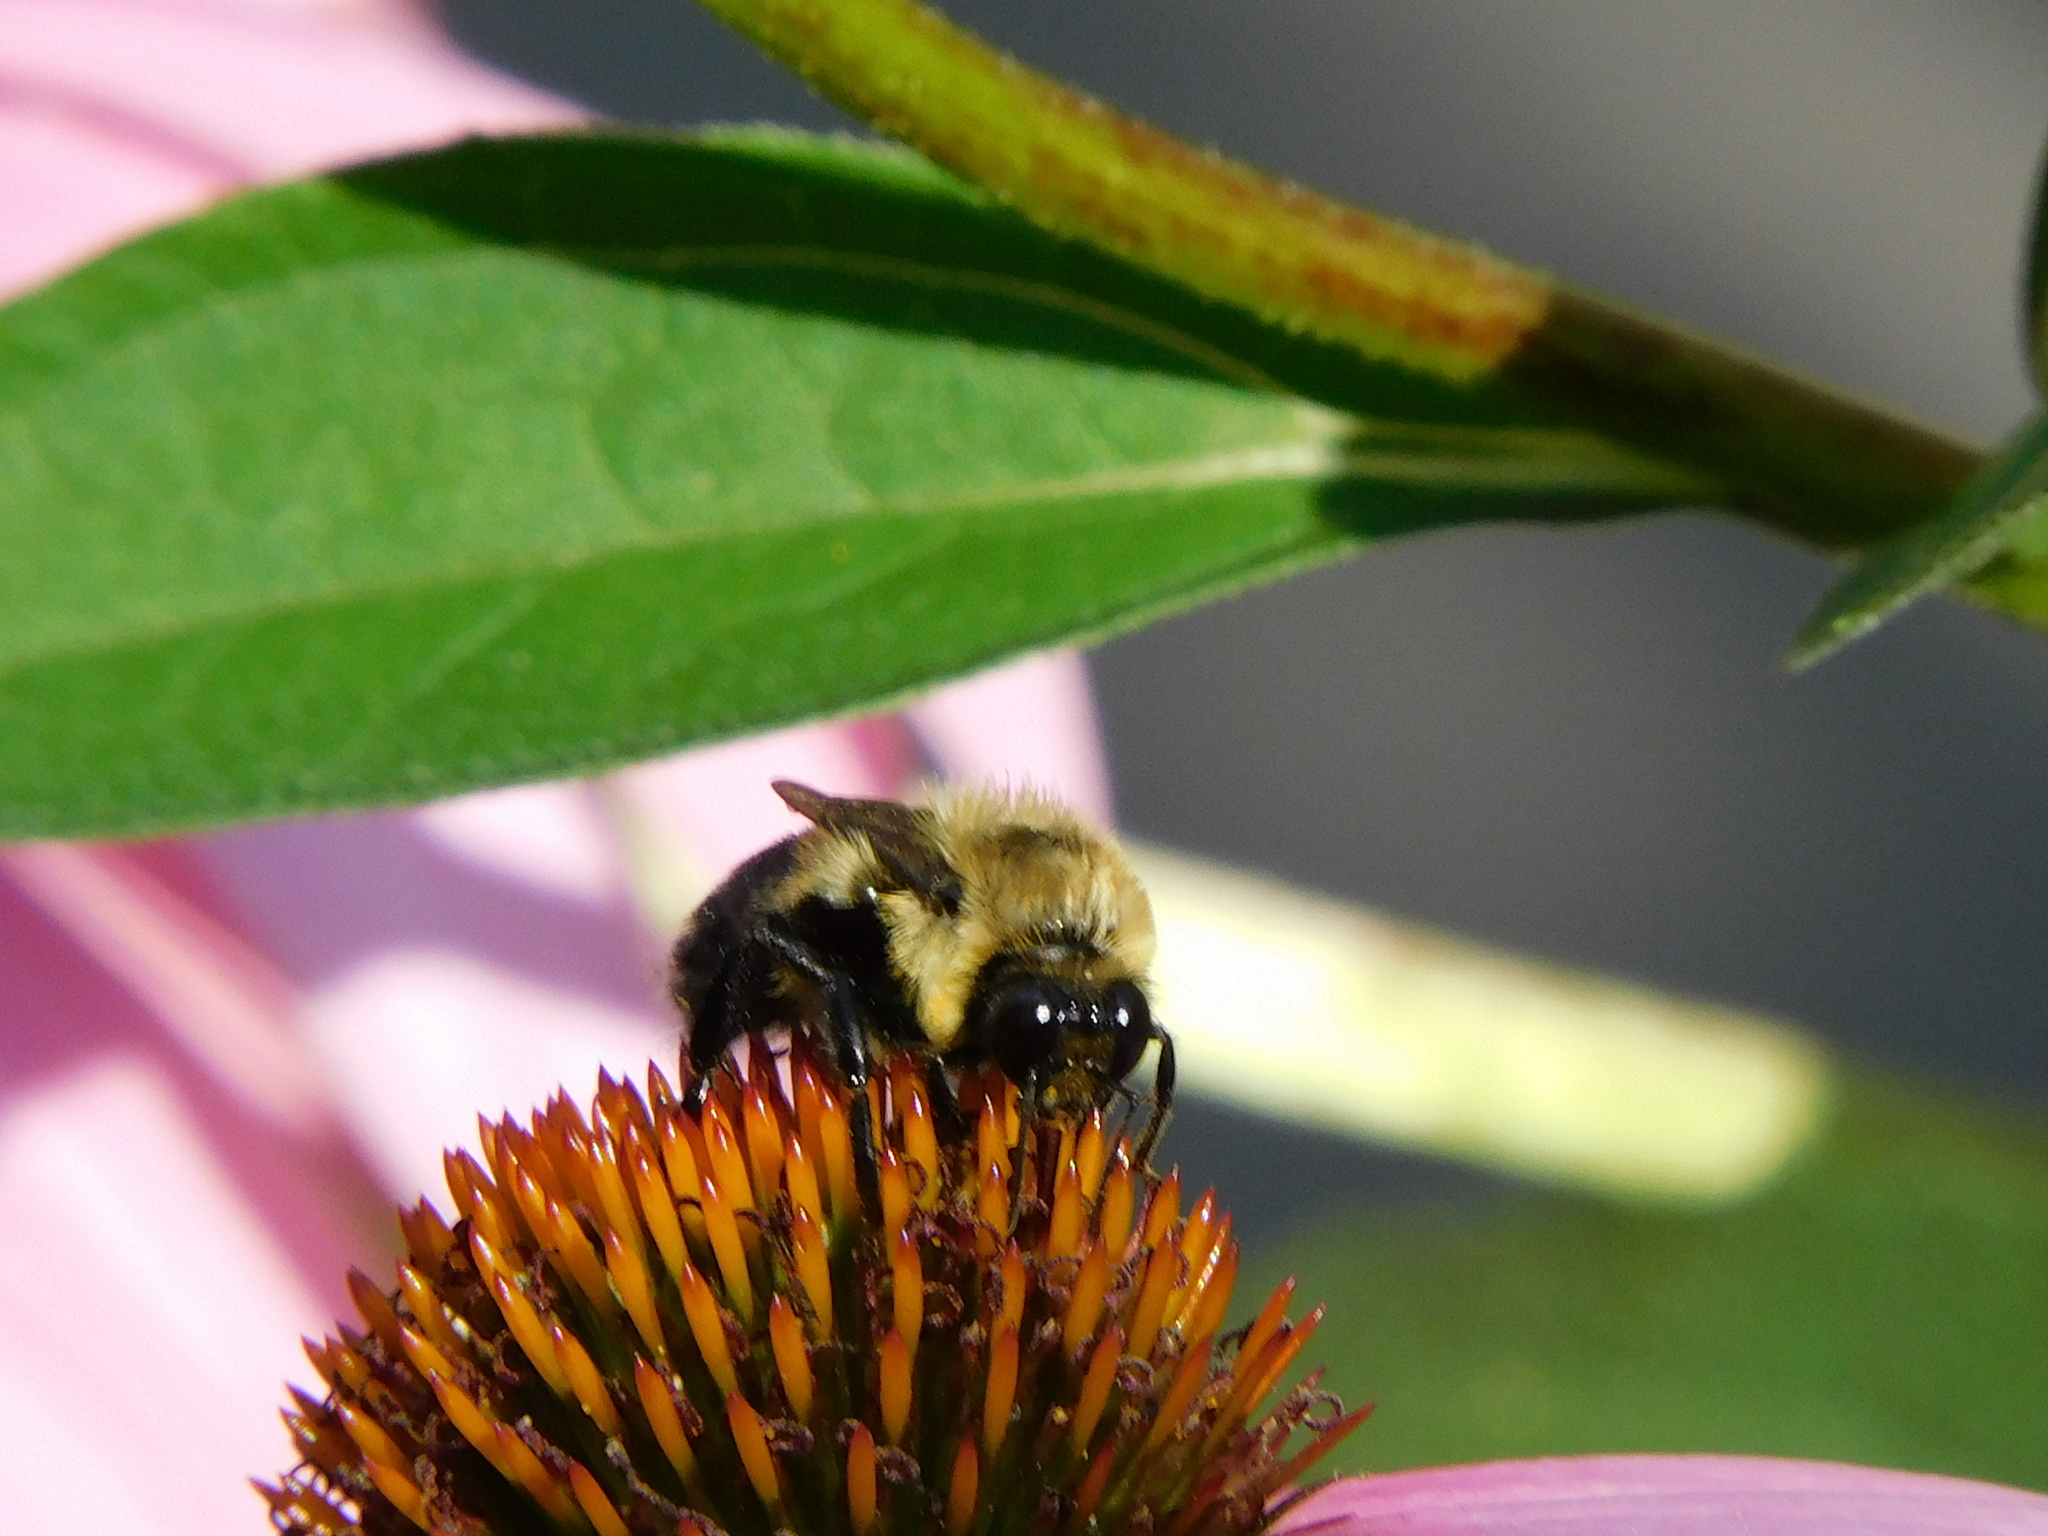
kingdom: Animalia
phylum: Arthropoda
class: Insecta
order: Hymenoptera
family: Apidae
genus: Bombus
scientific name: Bombus griseocollis
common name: Brown-belted bumble bee
